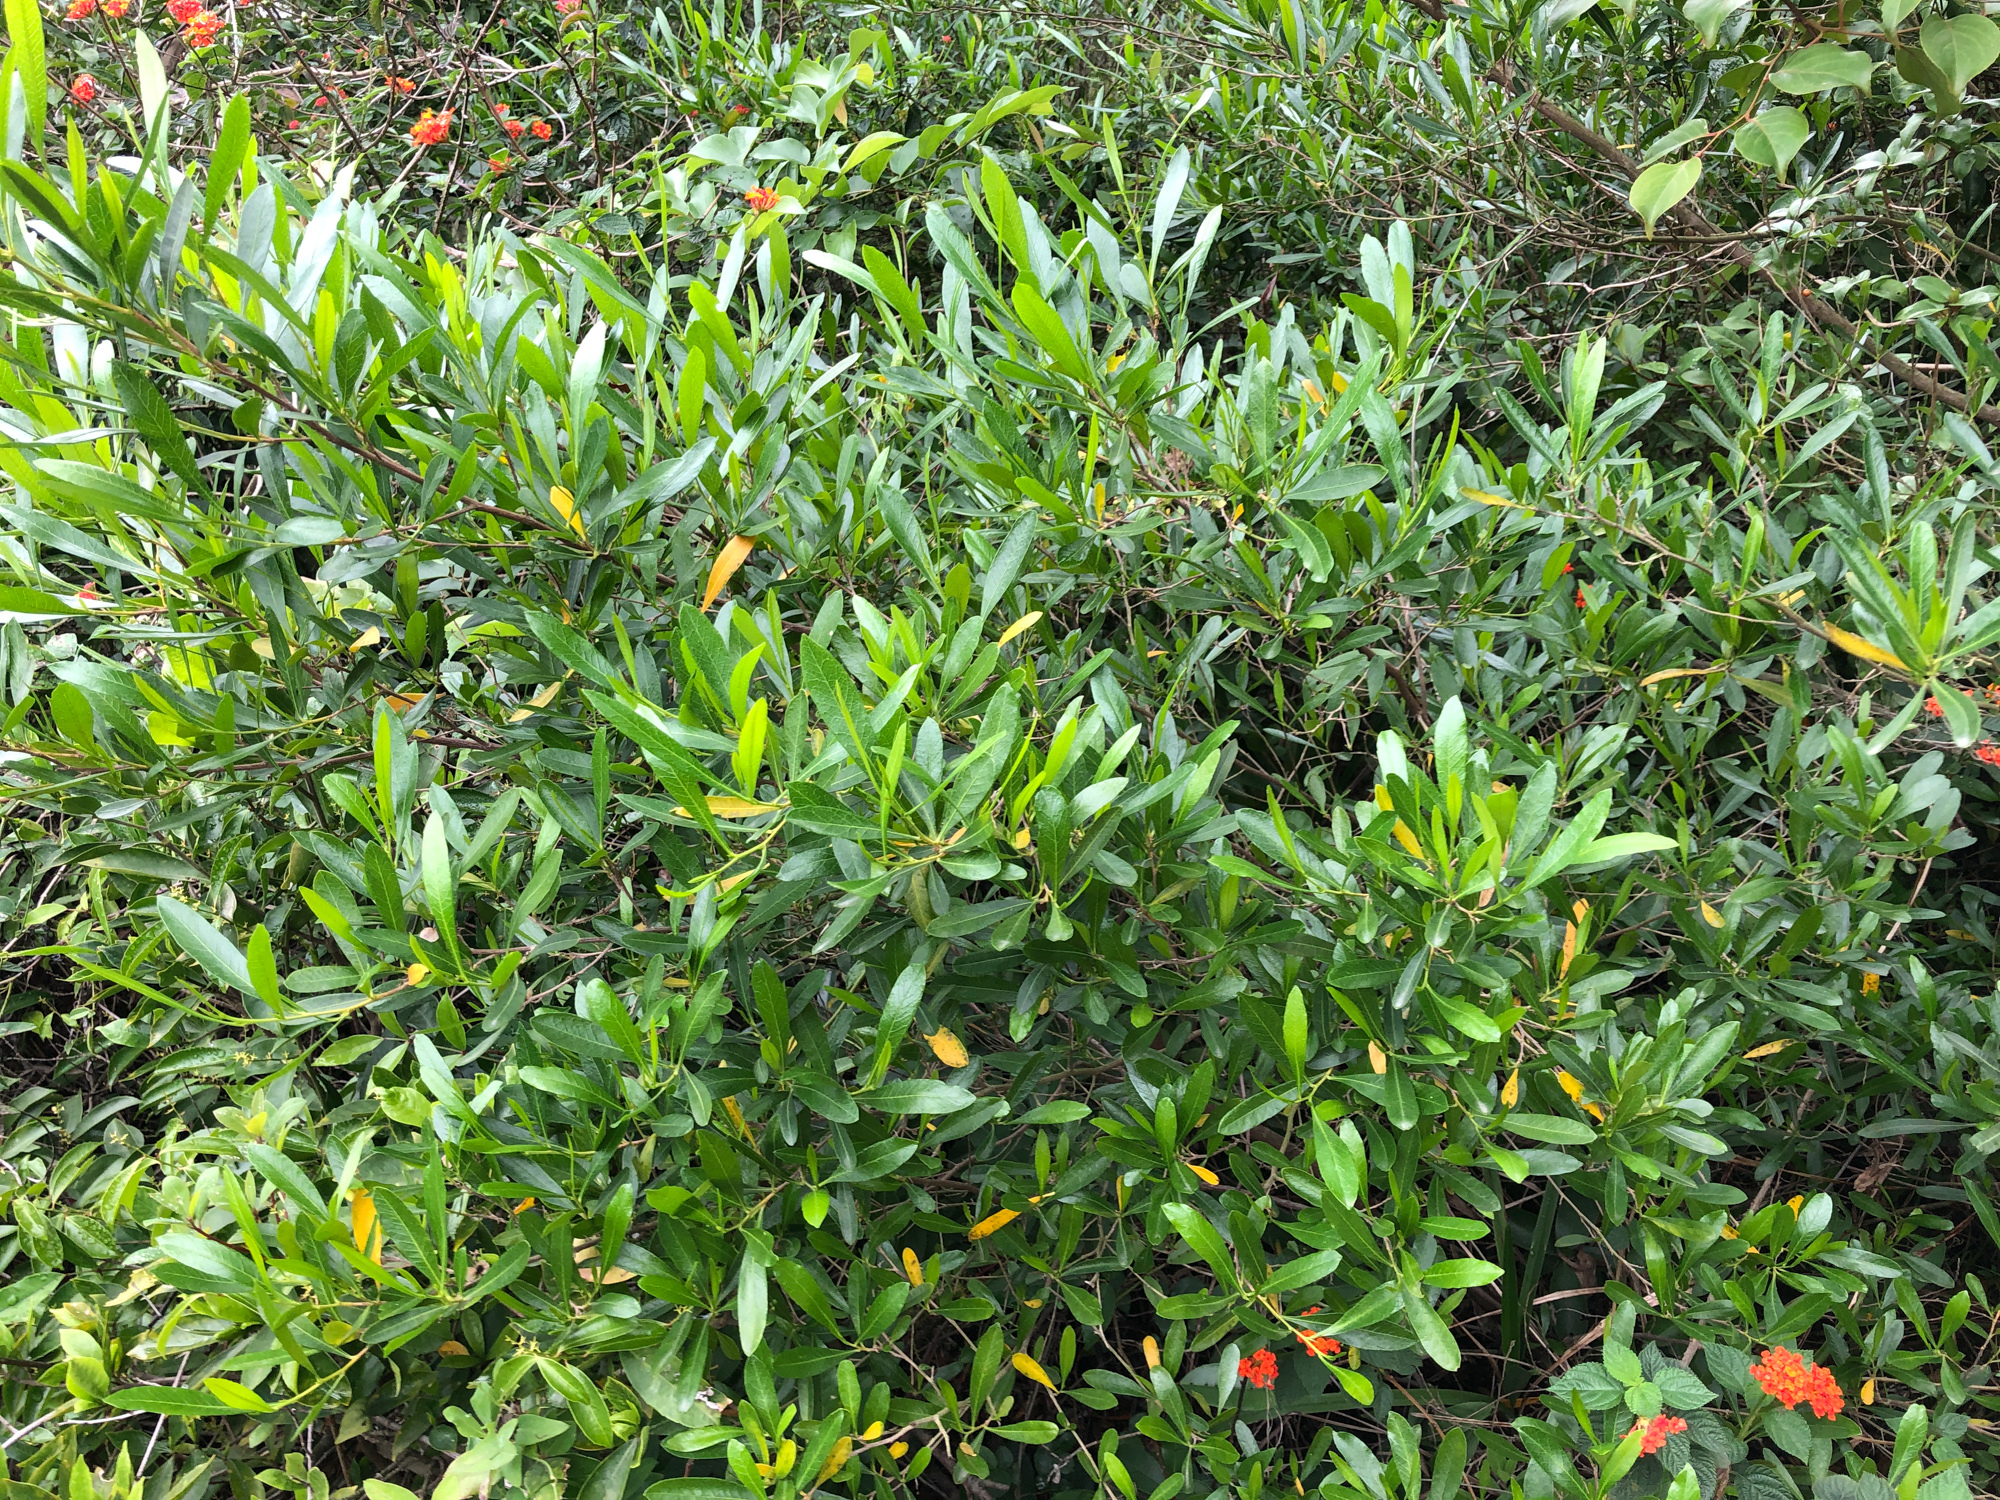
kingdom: Plantae
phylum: Tracheophyta
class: Magnoliopsida
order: Sapindales
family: Sapindaceae
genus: Dodonaea
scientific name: Dodonaea viscosa
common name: Hopbush
